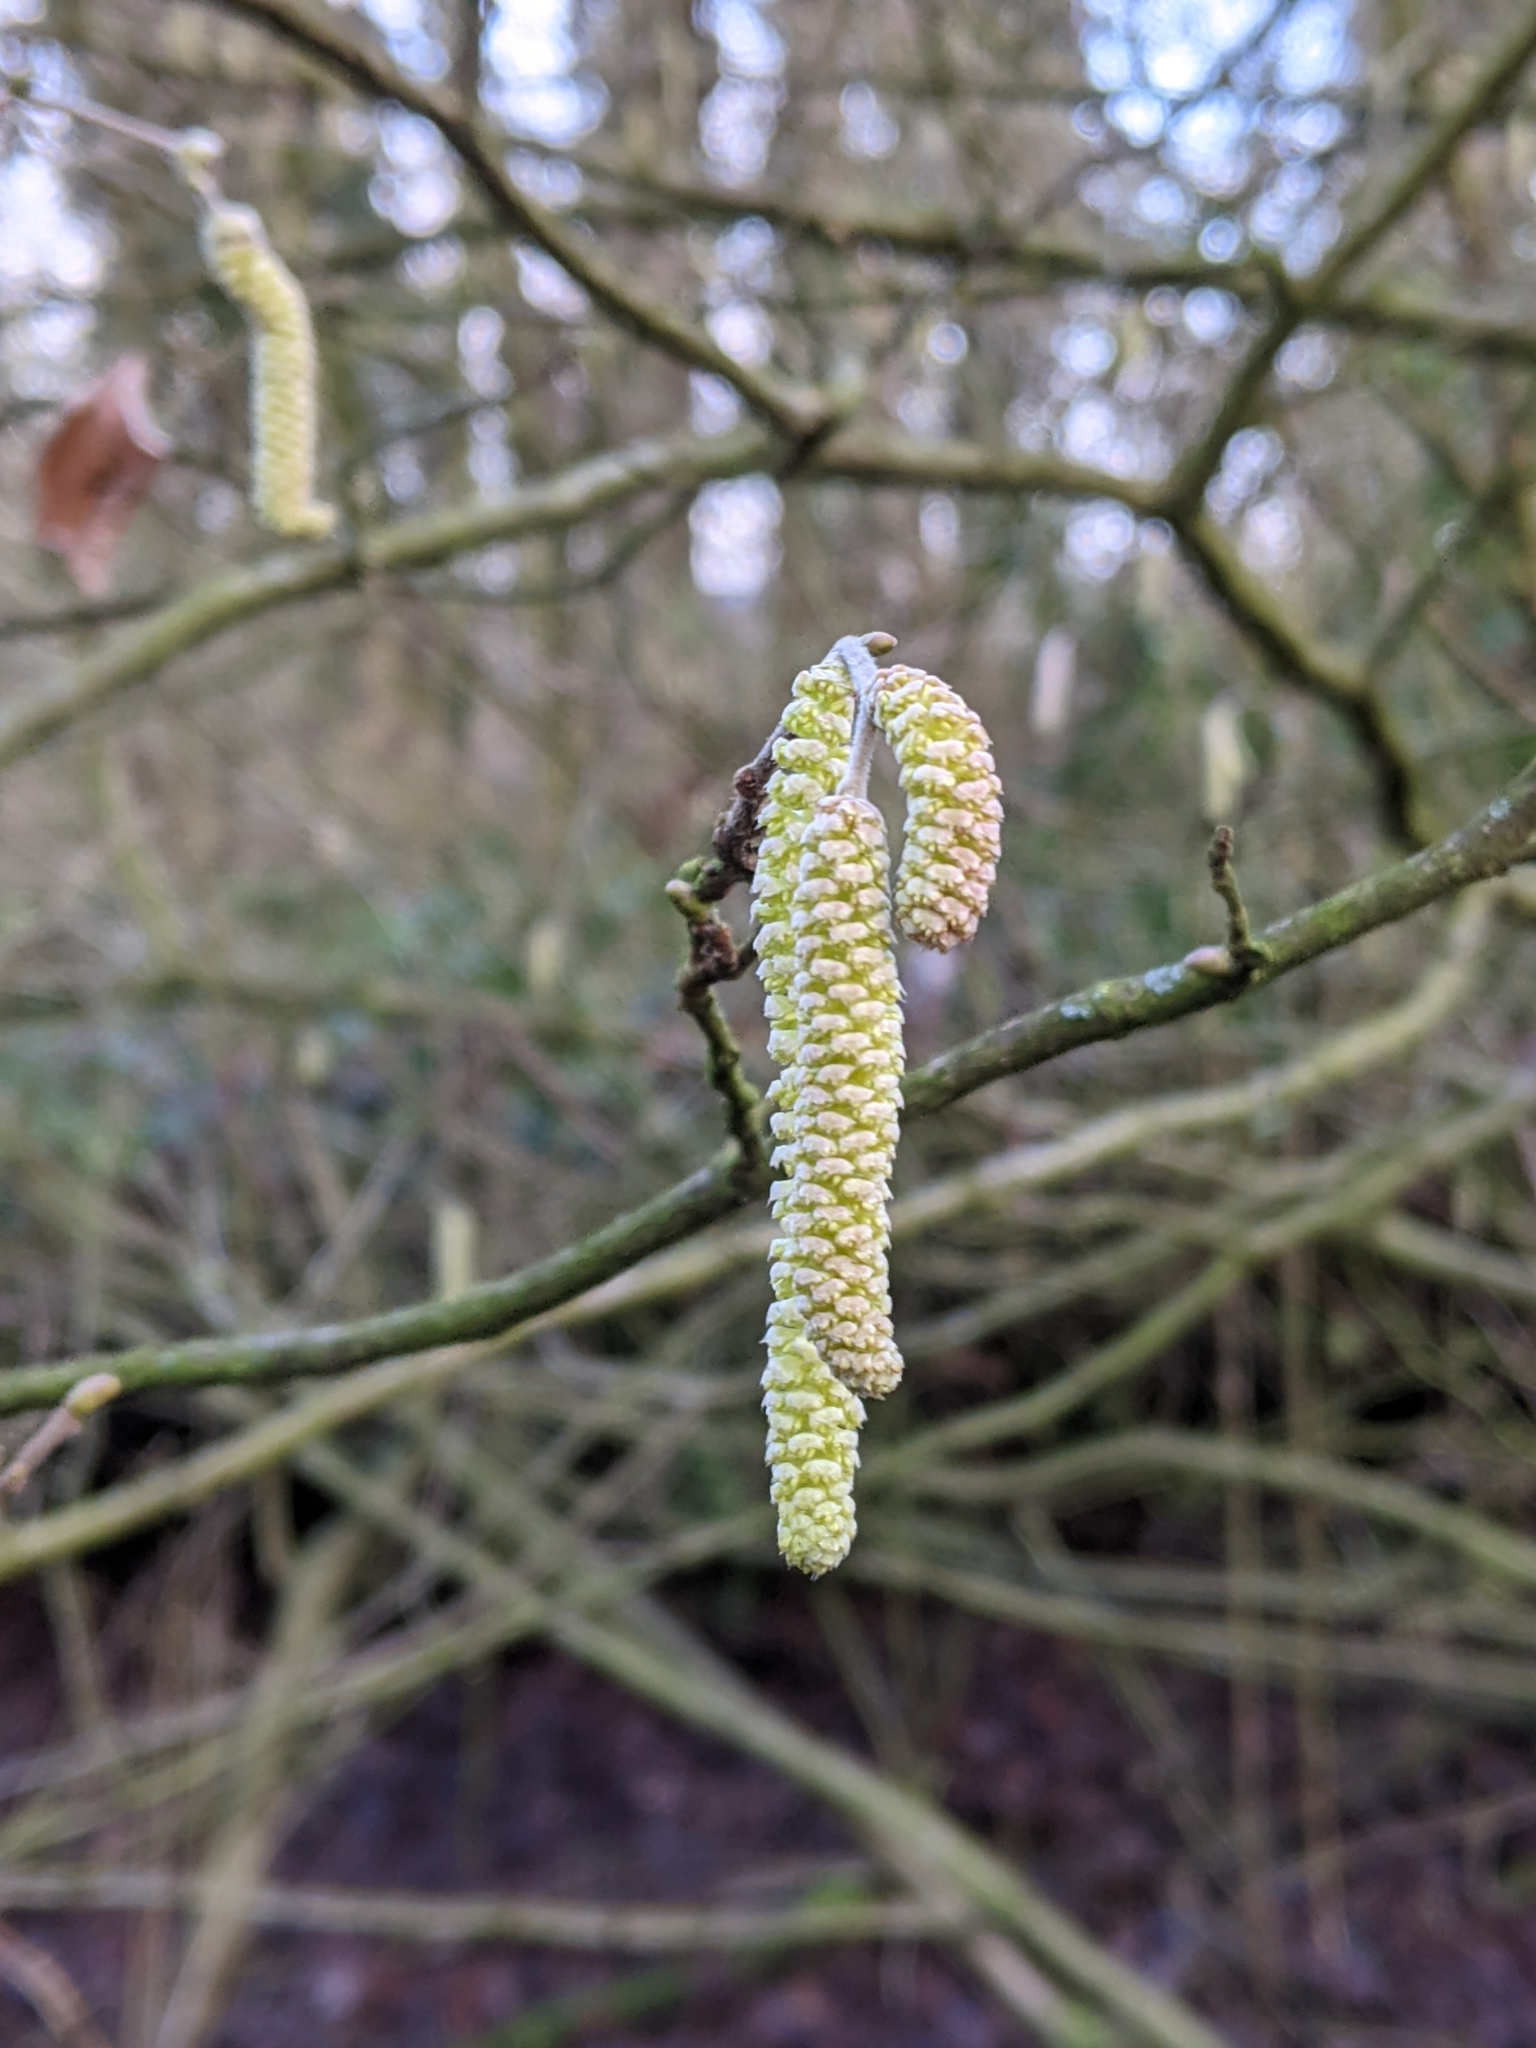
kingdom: Plantae
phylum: Tracheophyta
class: Magnoliopsida
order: Fagales
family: Betulaceae
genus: Corylus
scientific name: Corylus avellana
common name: European hazel
